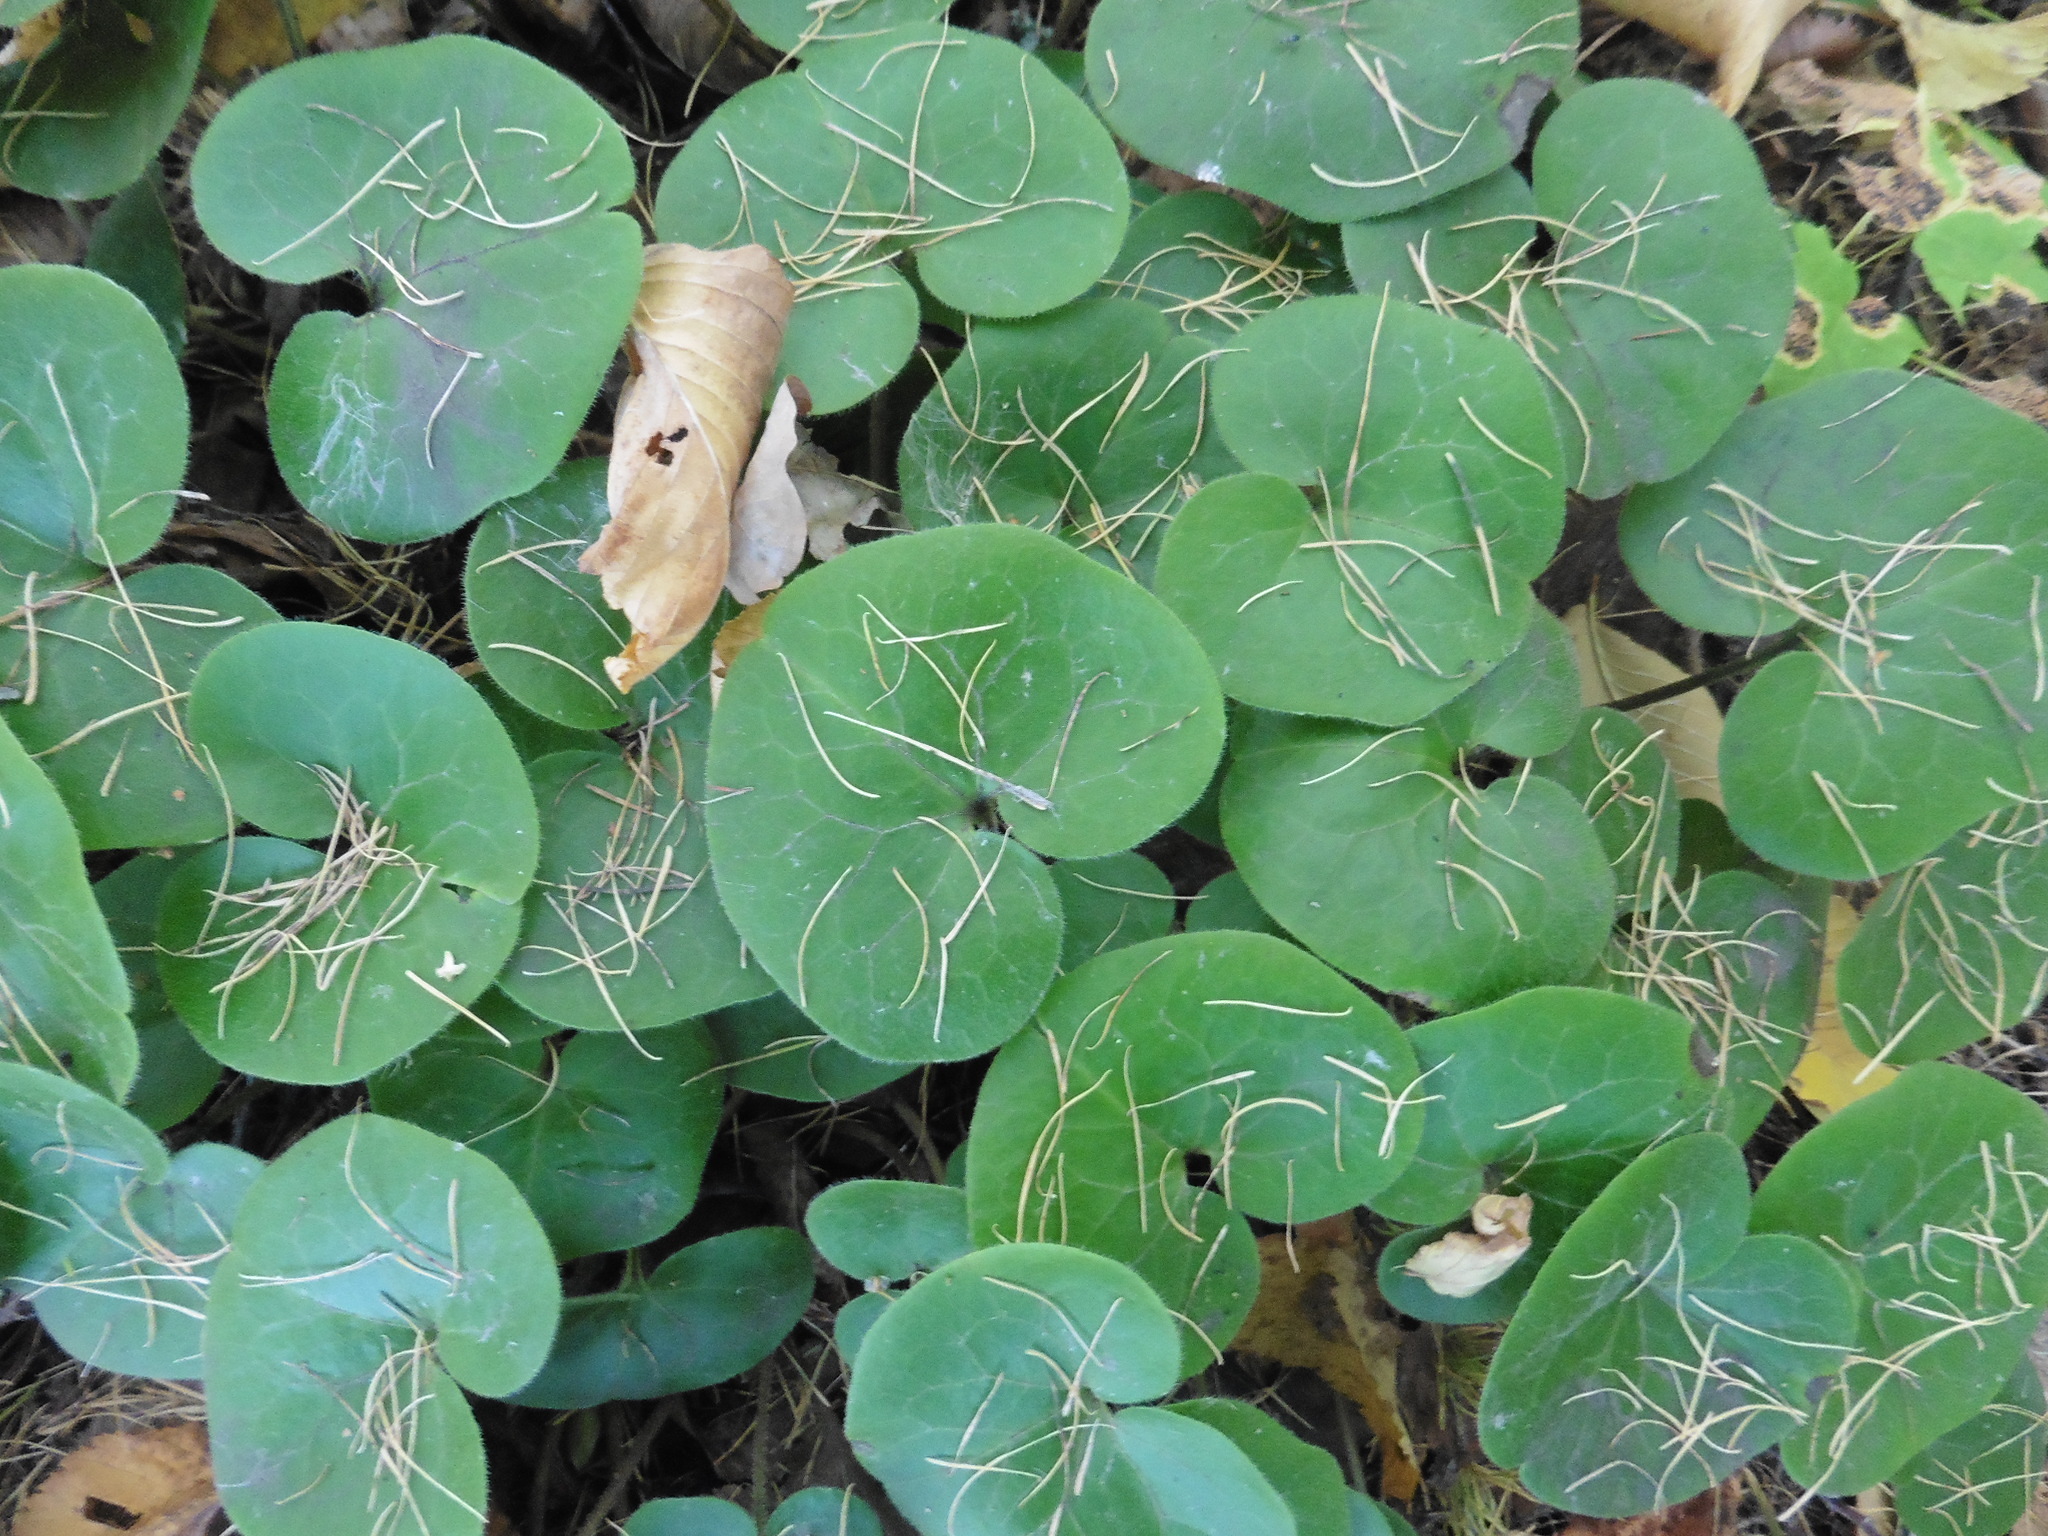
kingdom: Plantae
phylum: Tracheophyta
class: Magnoliopsida
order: Piperales
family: Aristolochiaceae
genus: Asarum
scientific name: Asarum europaeum
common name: Asarabacca
